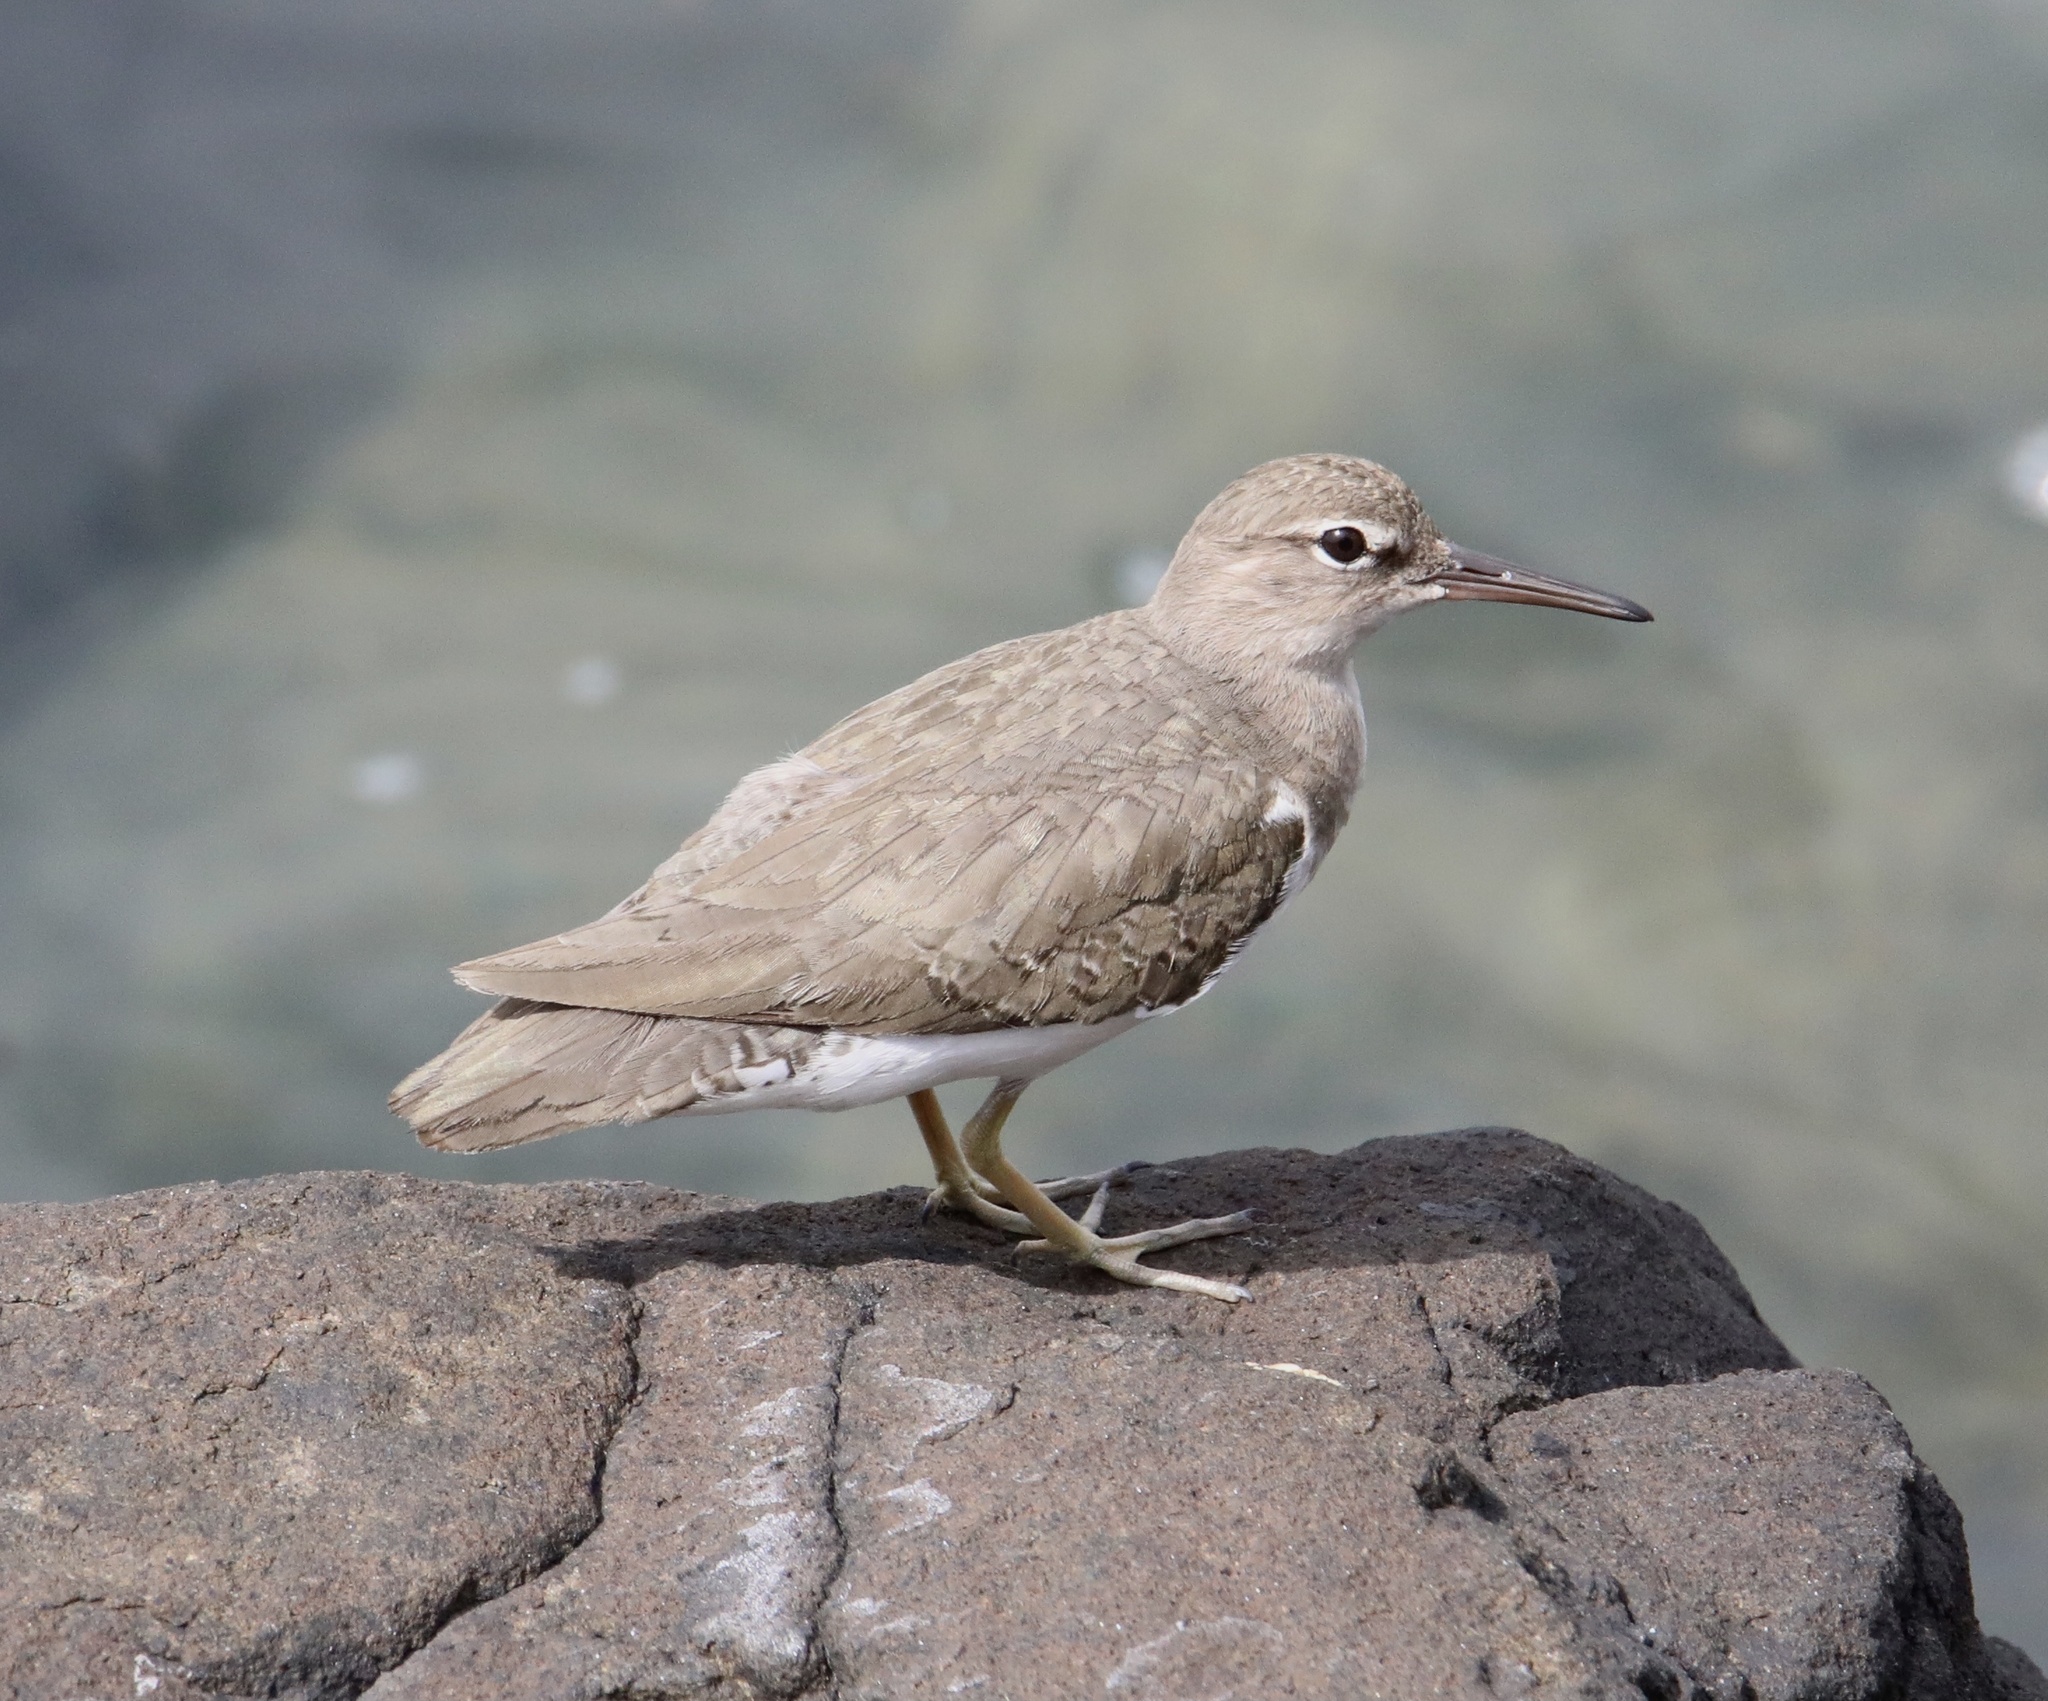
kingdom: Animalia
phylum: Chordata
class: Aves
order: Charadriiformes
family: Scolopacidae
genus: Actitis
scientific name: Actitis macularius
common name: Spotted sandpiper
